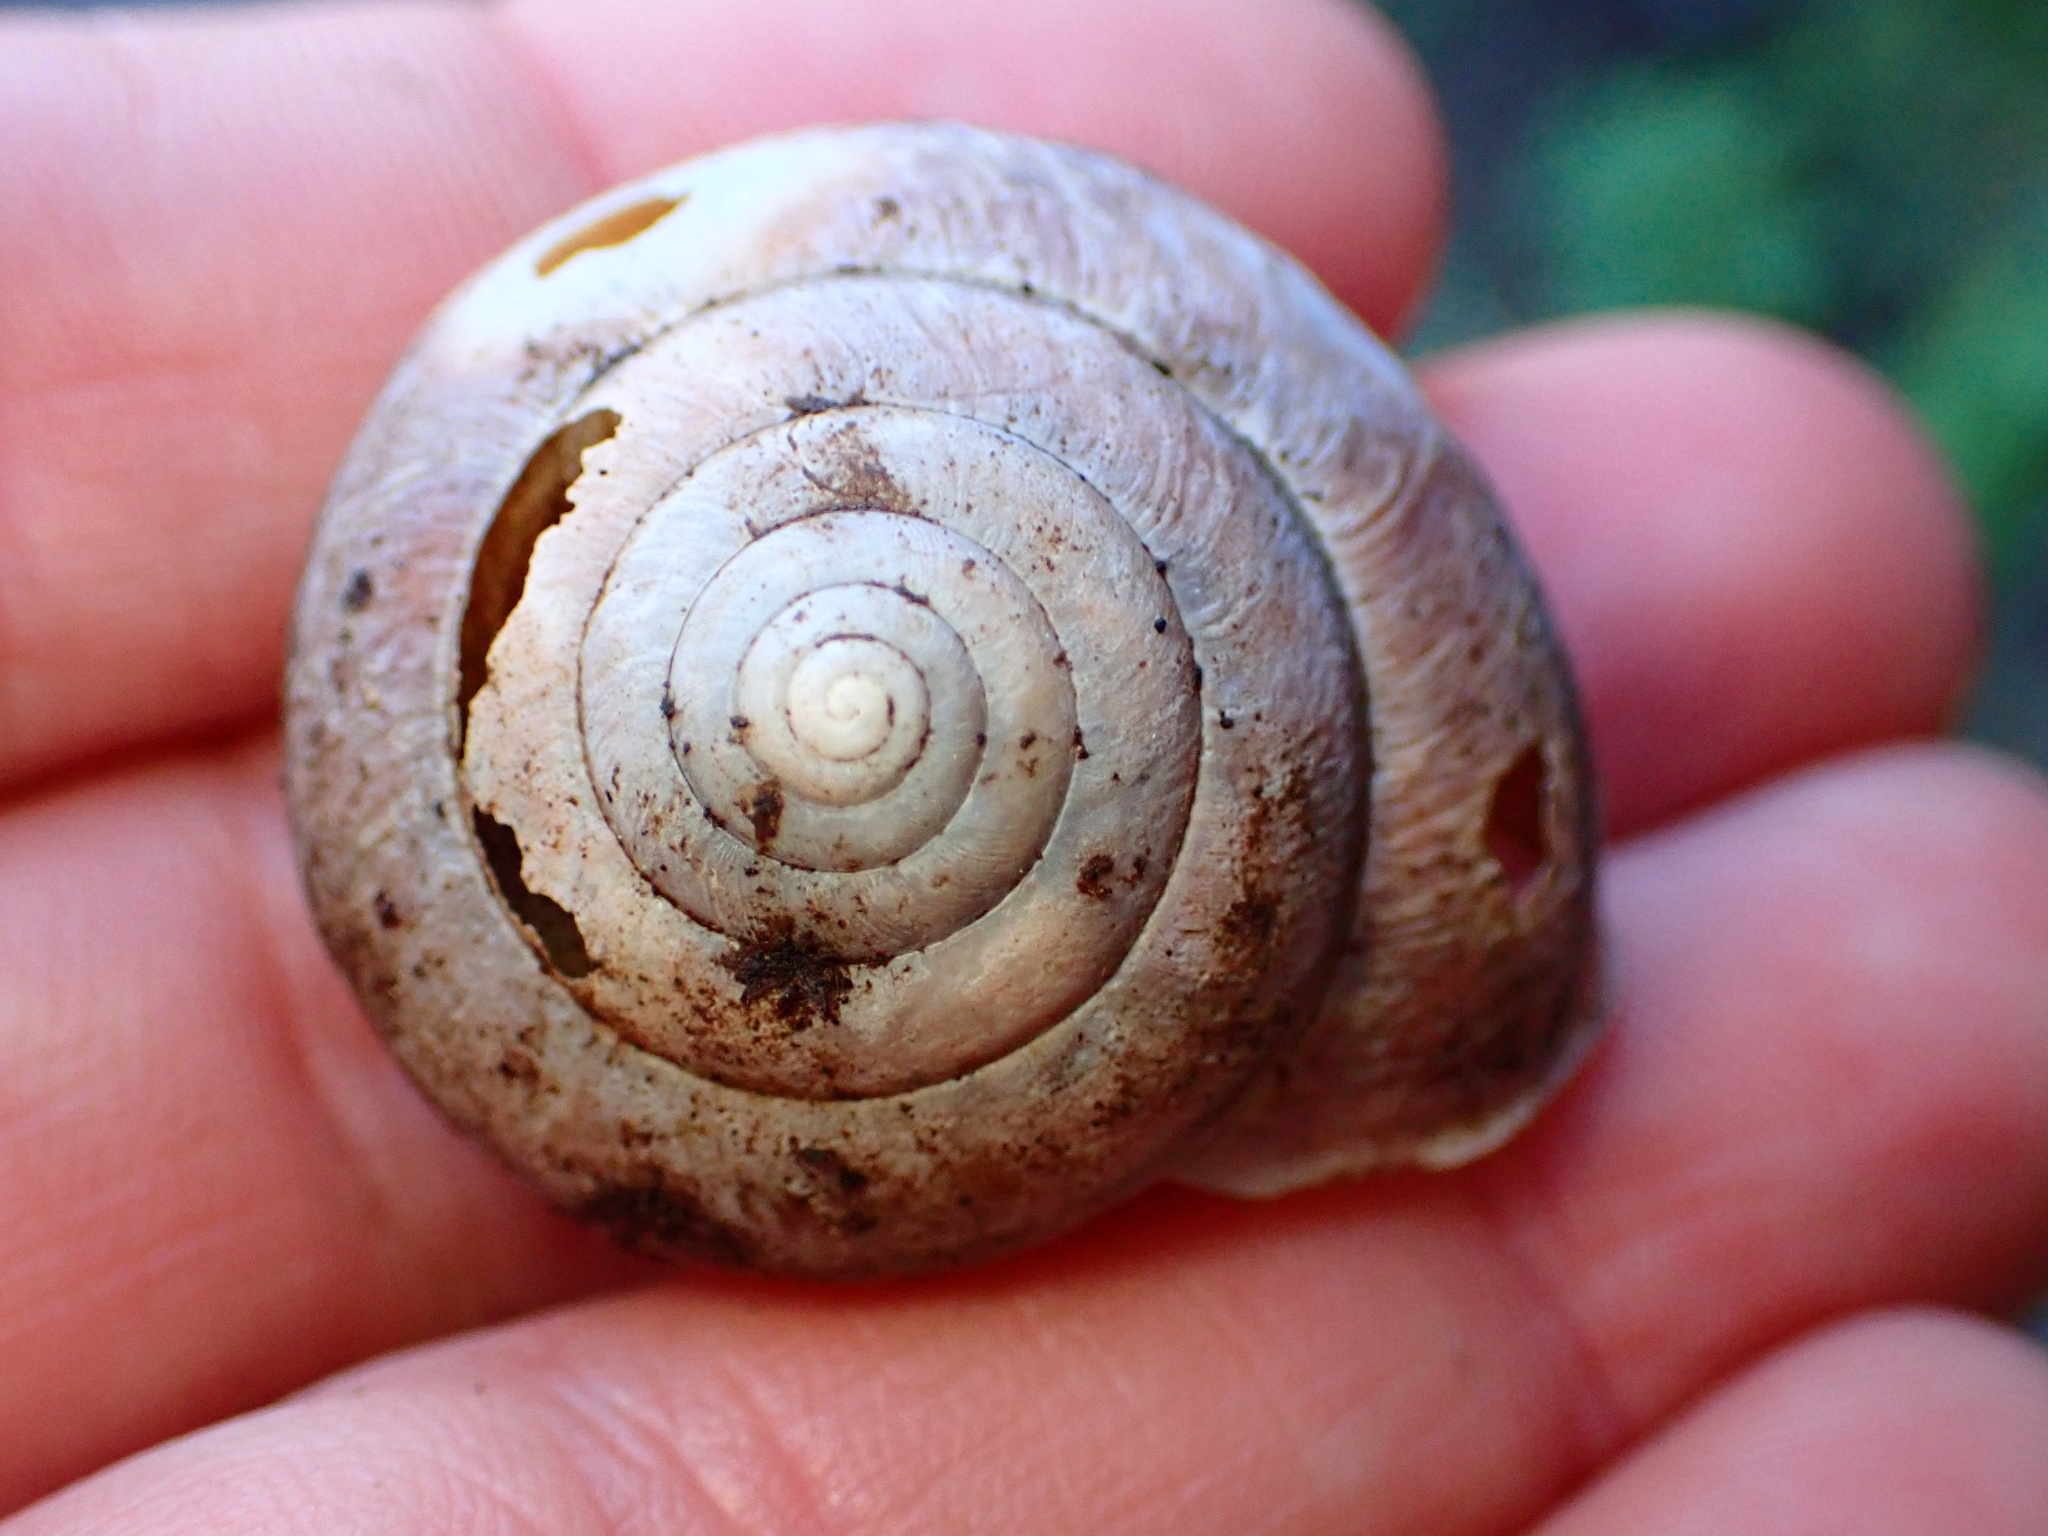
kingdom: Animalia
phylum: Mollusca
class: Gastropoda
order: Stylommatophora
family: Xanthonychidae
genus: Helminthoglypta
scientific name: Helminthoglypta arrosa
